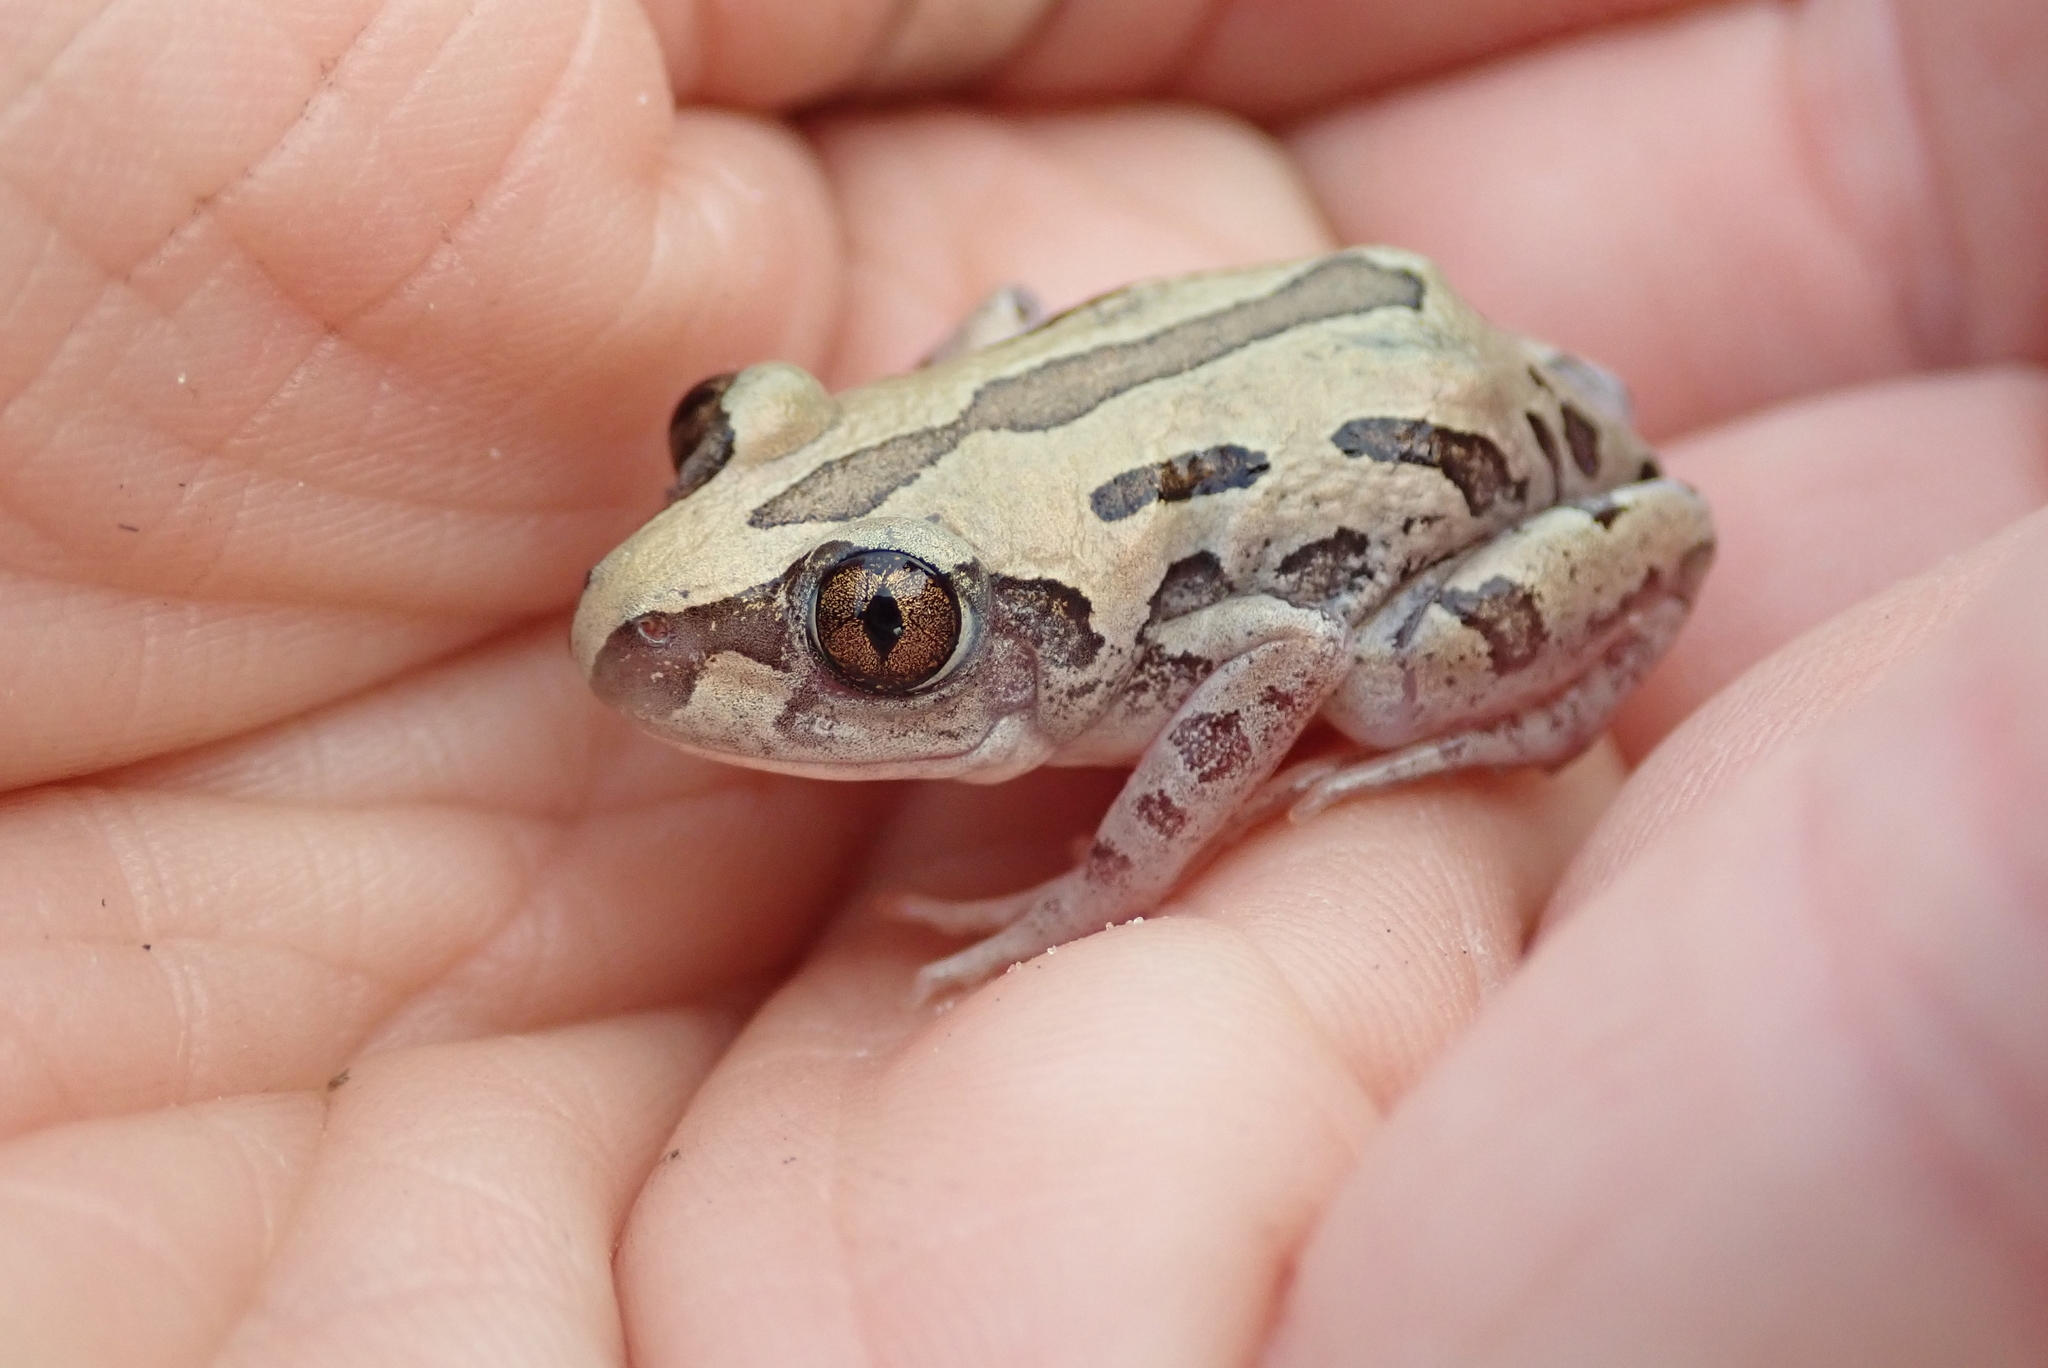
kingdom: Animalia
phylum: Chordata
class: Amphibia
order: Anura
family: Hyperoliidae
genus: Kassina
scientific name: Kassina senegalensis
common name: Senegal land frog
